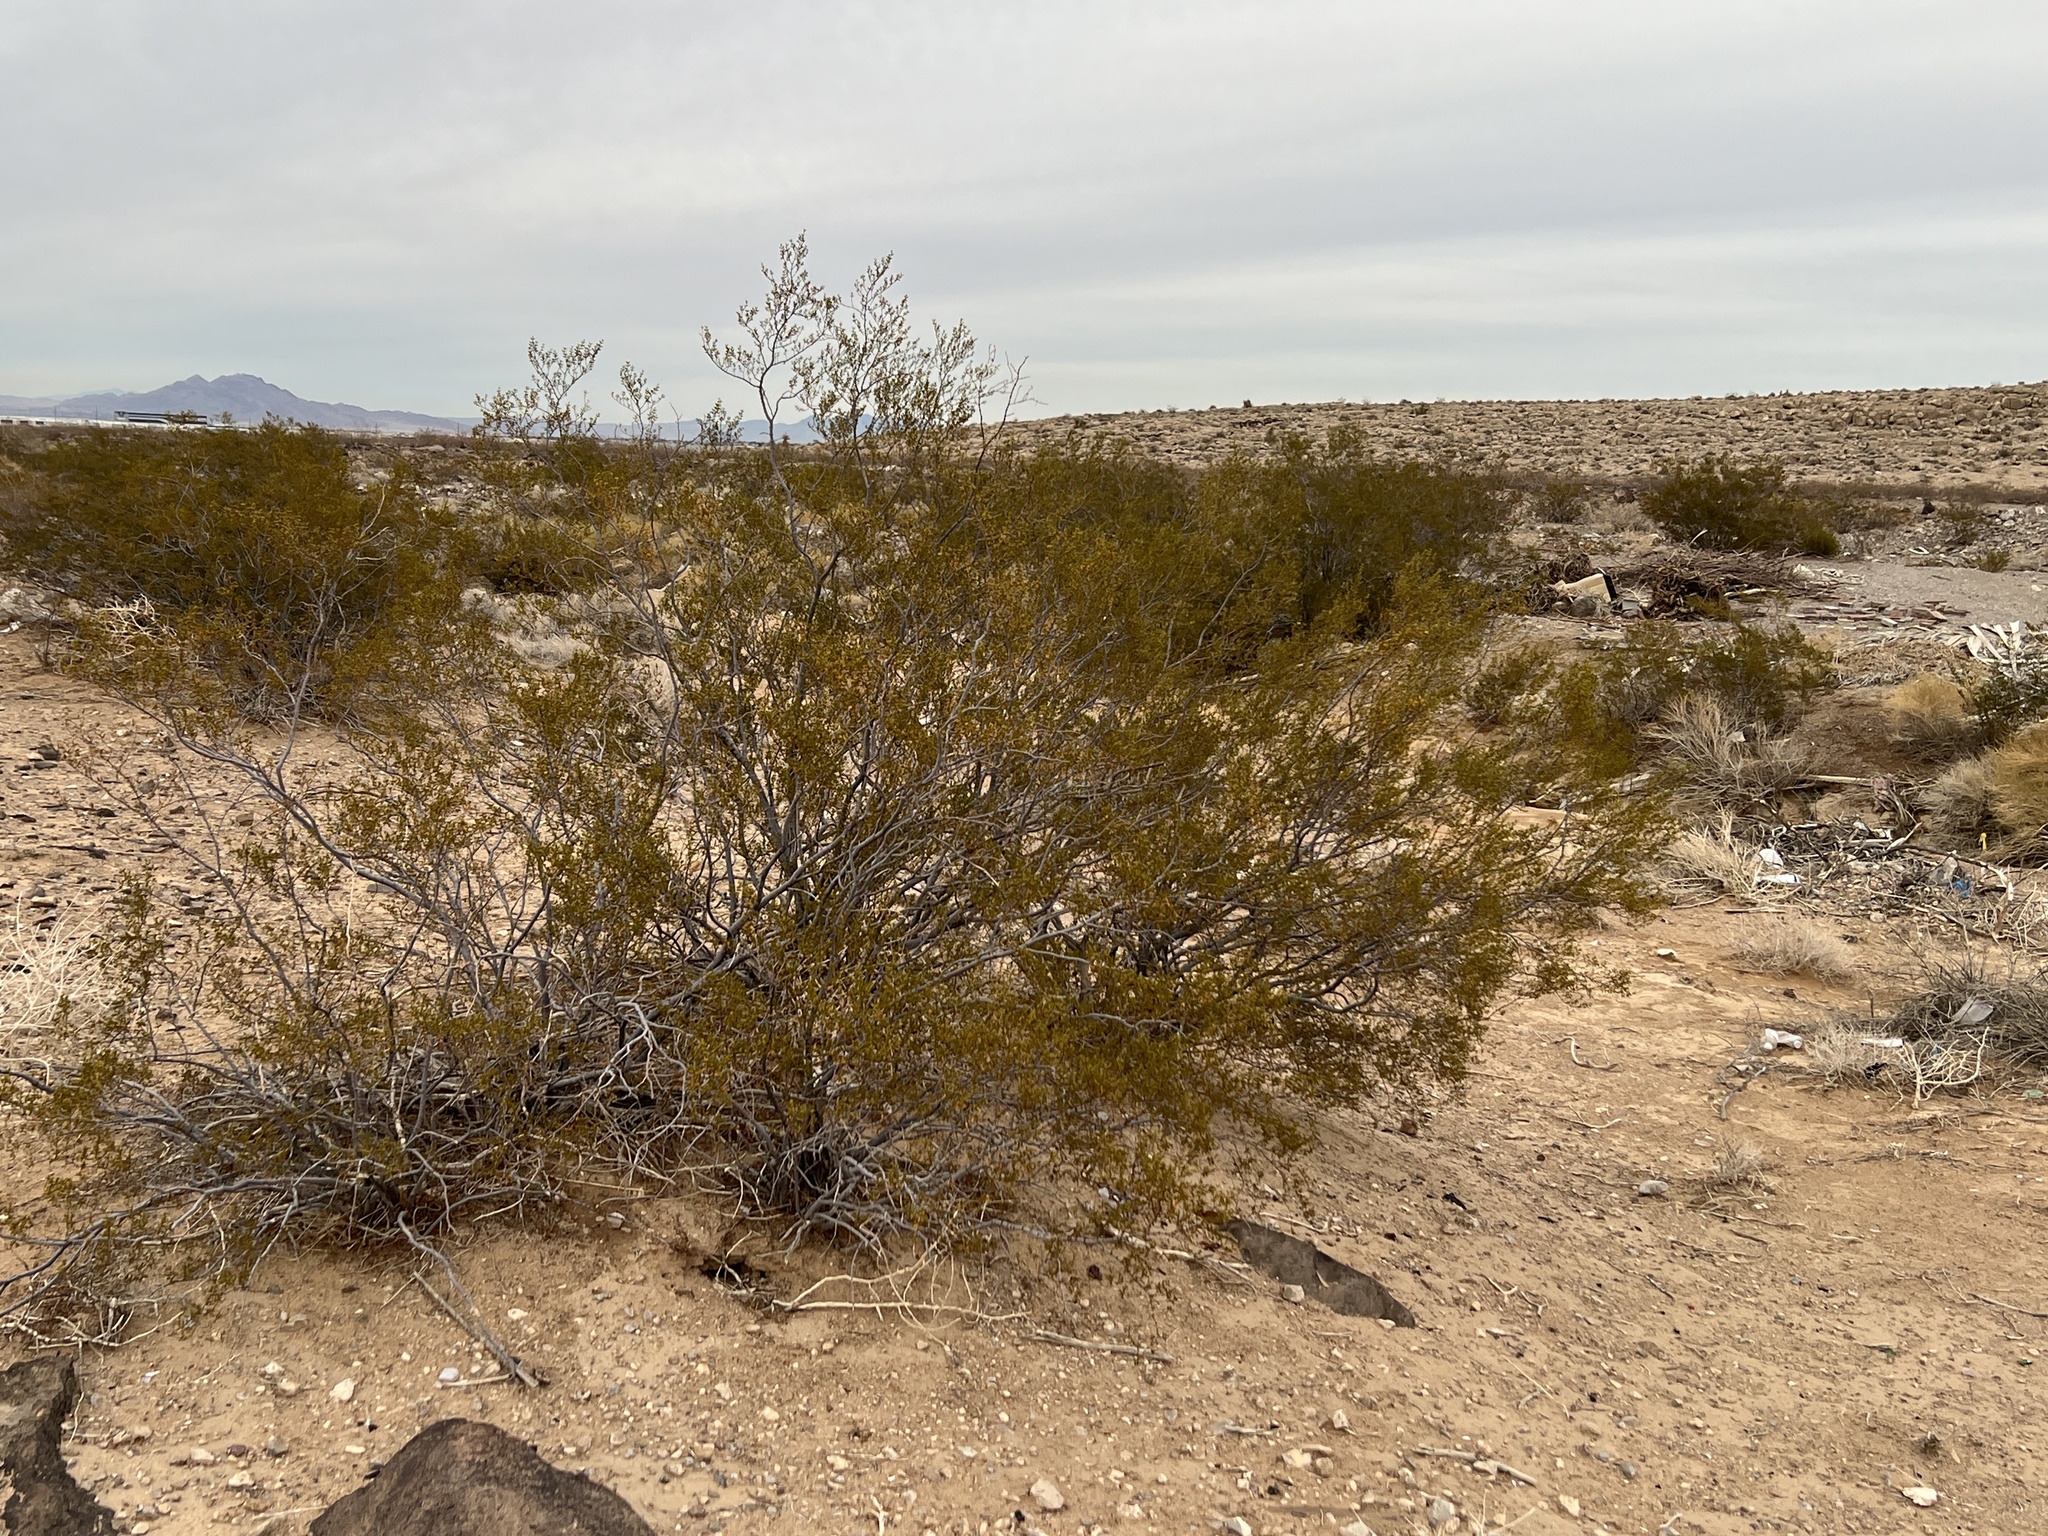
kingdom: Plantae
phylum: Tracheophyta
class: Magnoliopsida
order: Zygophyllales
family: Zygophyllaceae
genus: Larrea
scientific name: Larrea tridentata
